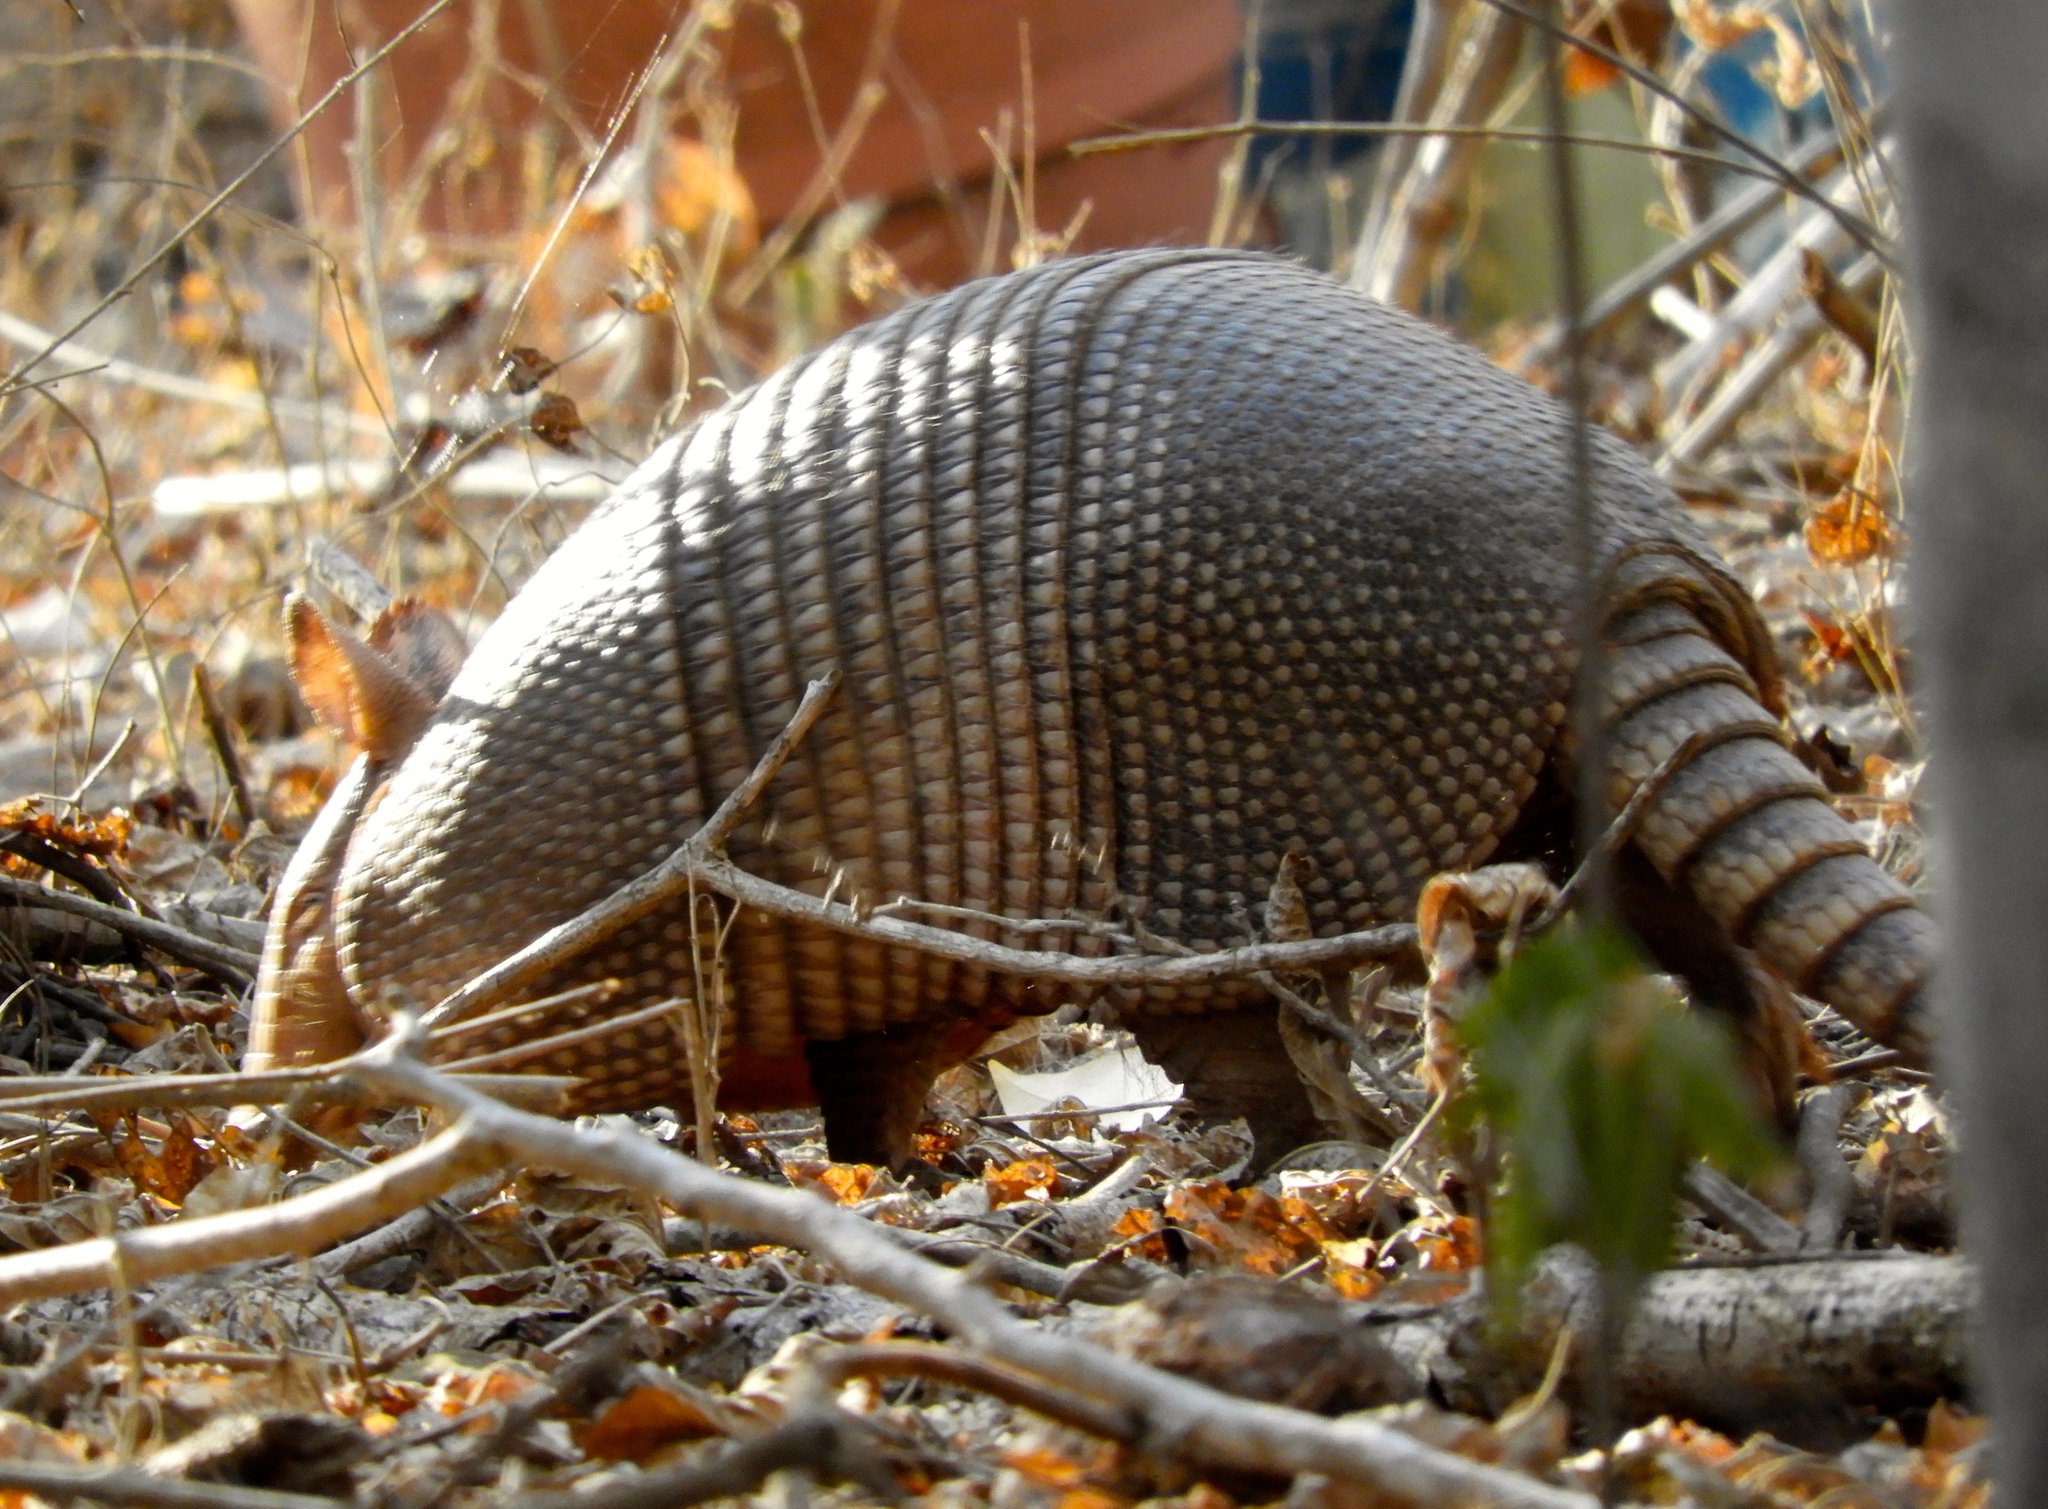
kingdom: Animalia
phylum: Chordata
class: Mammalia
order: Cingulata
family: Dasypodidae
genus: Dasypus
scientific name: Dasypus novemcinctus
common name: Nine-banded armadillo
